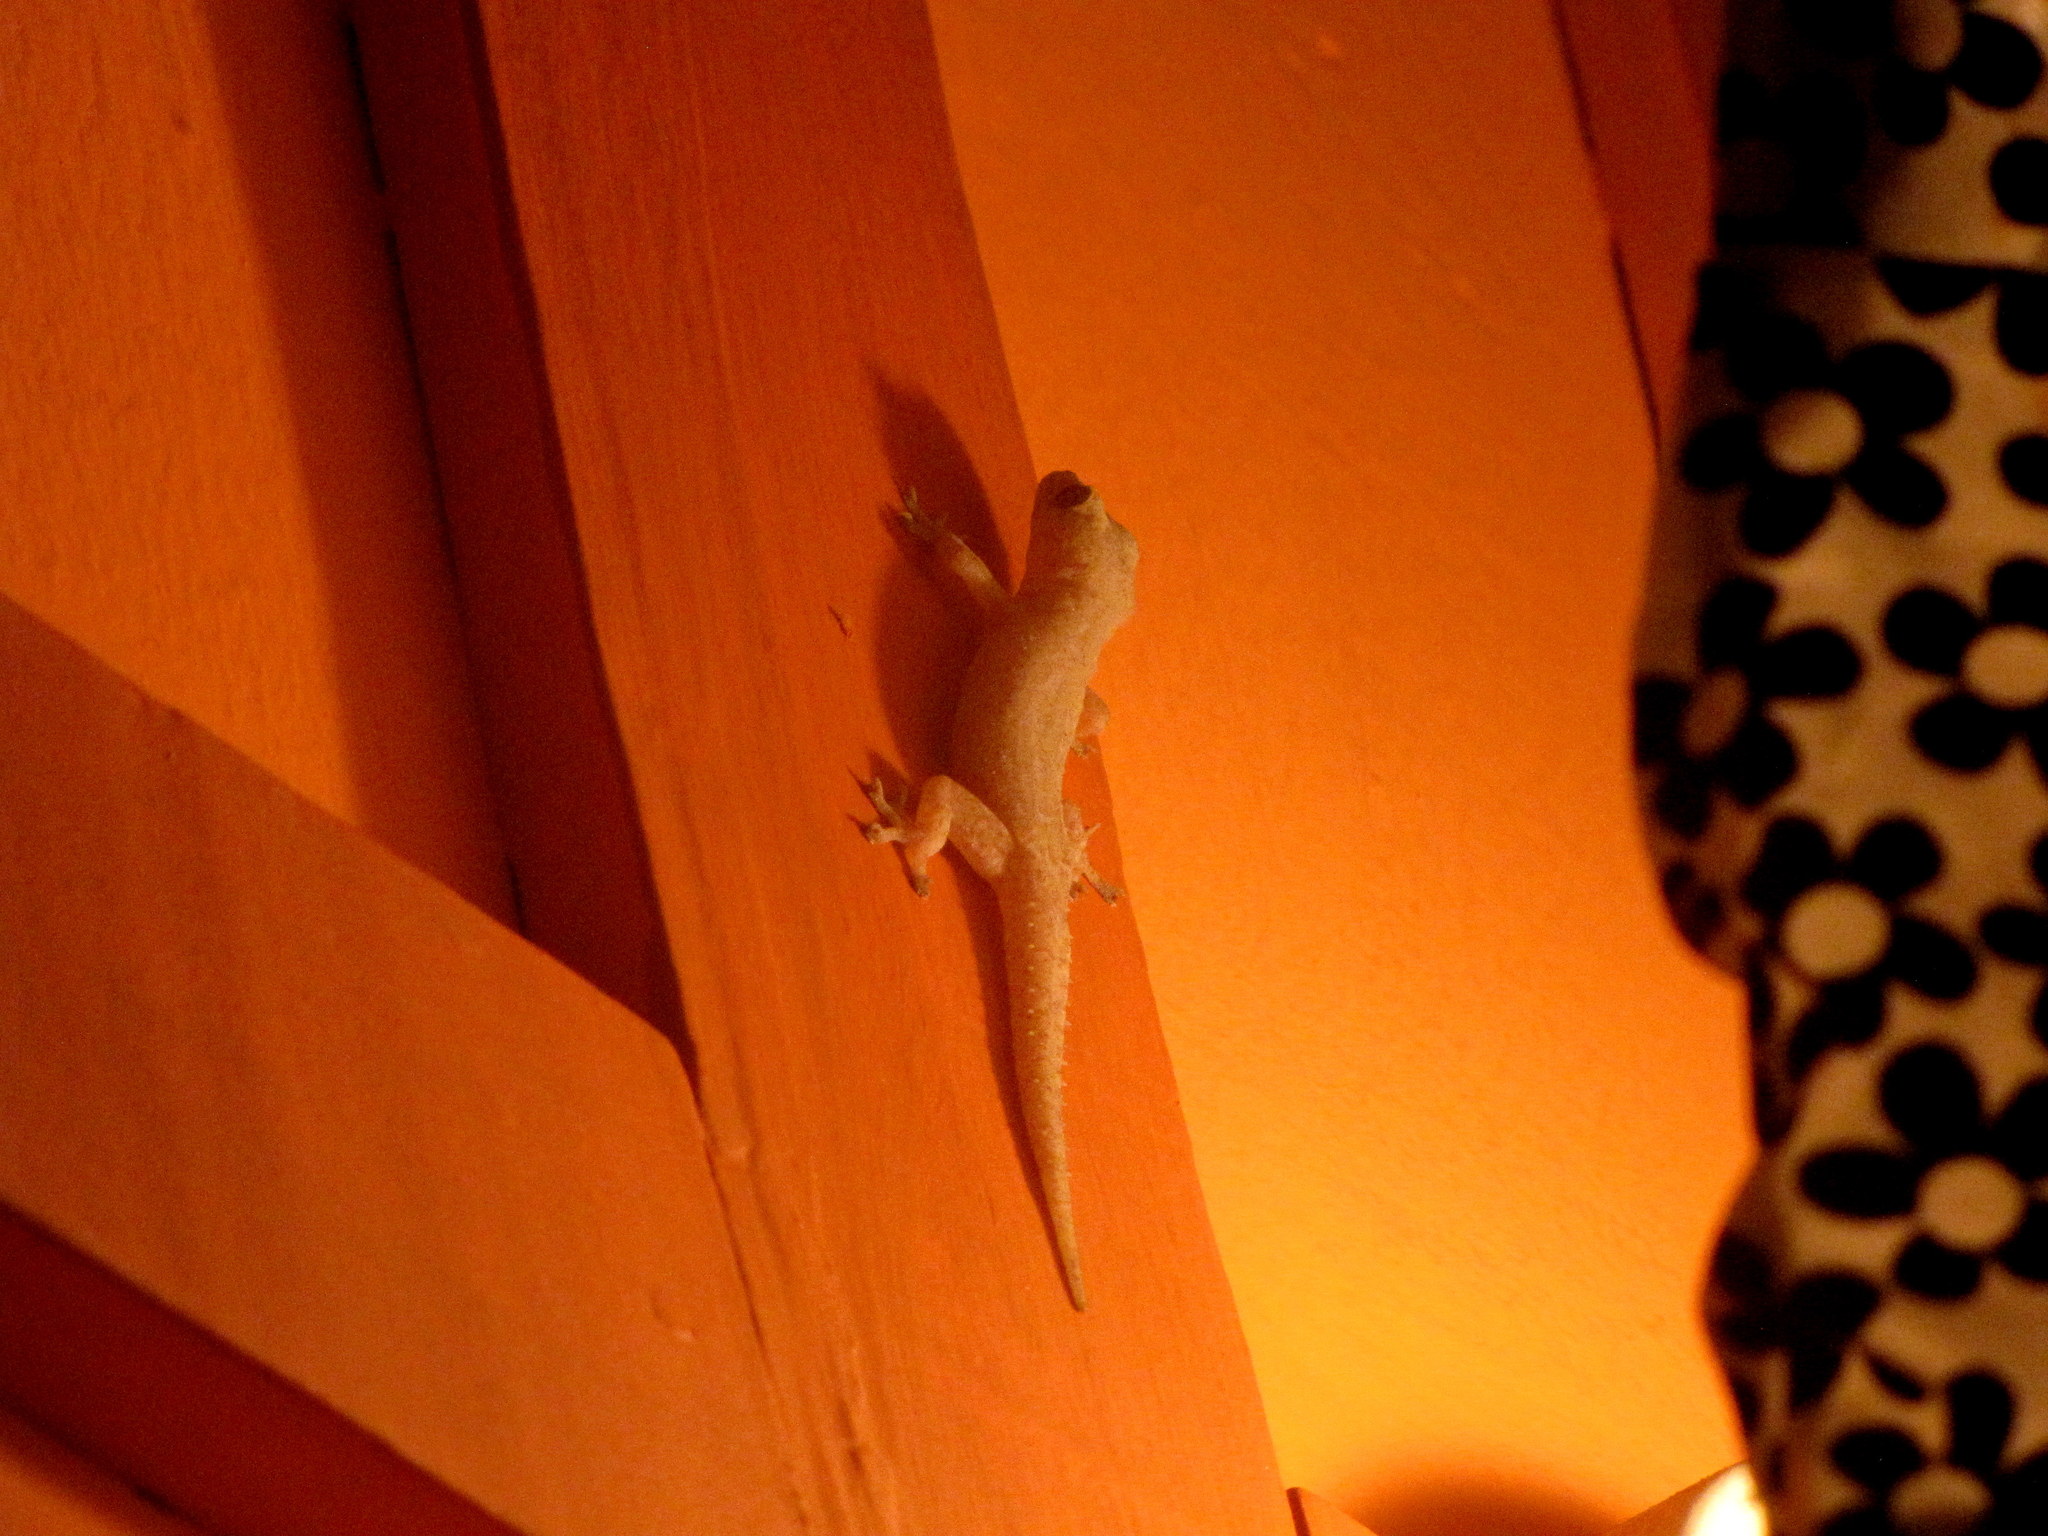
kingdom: Animalia
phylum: Chordata
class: Squamata
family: Gekkonidae
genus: Hemidactylus
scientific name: Hemidactylus frenatus
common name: Common house gecko
